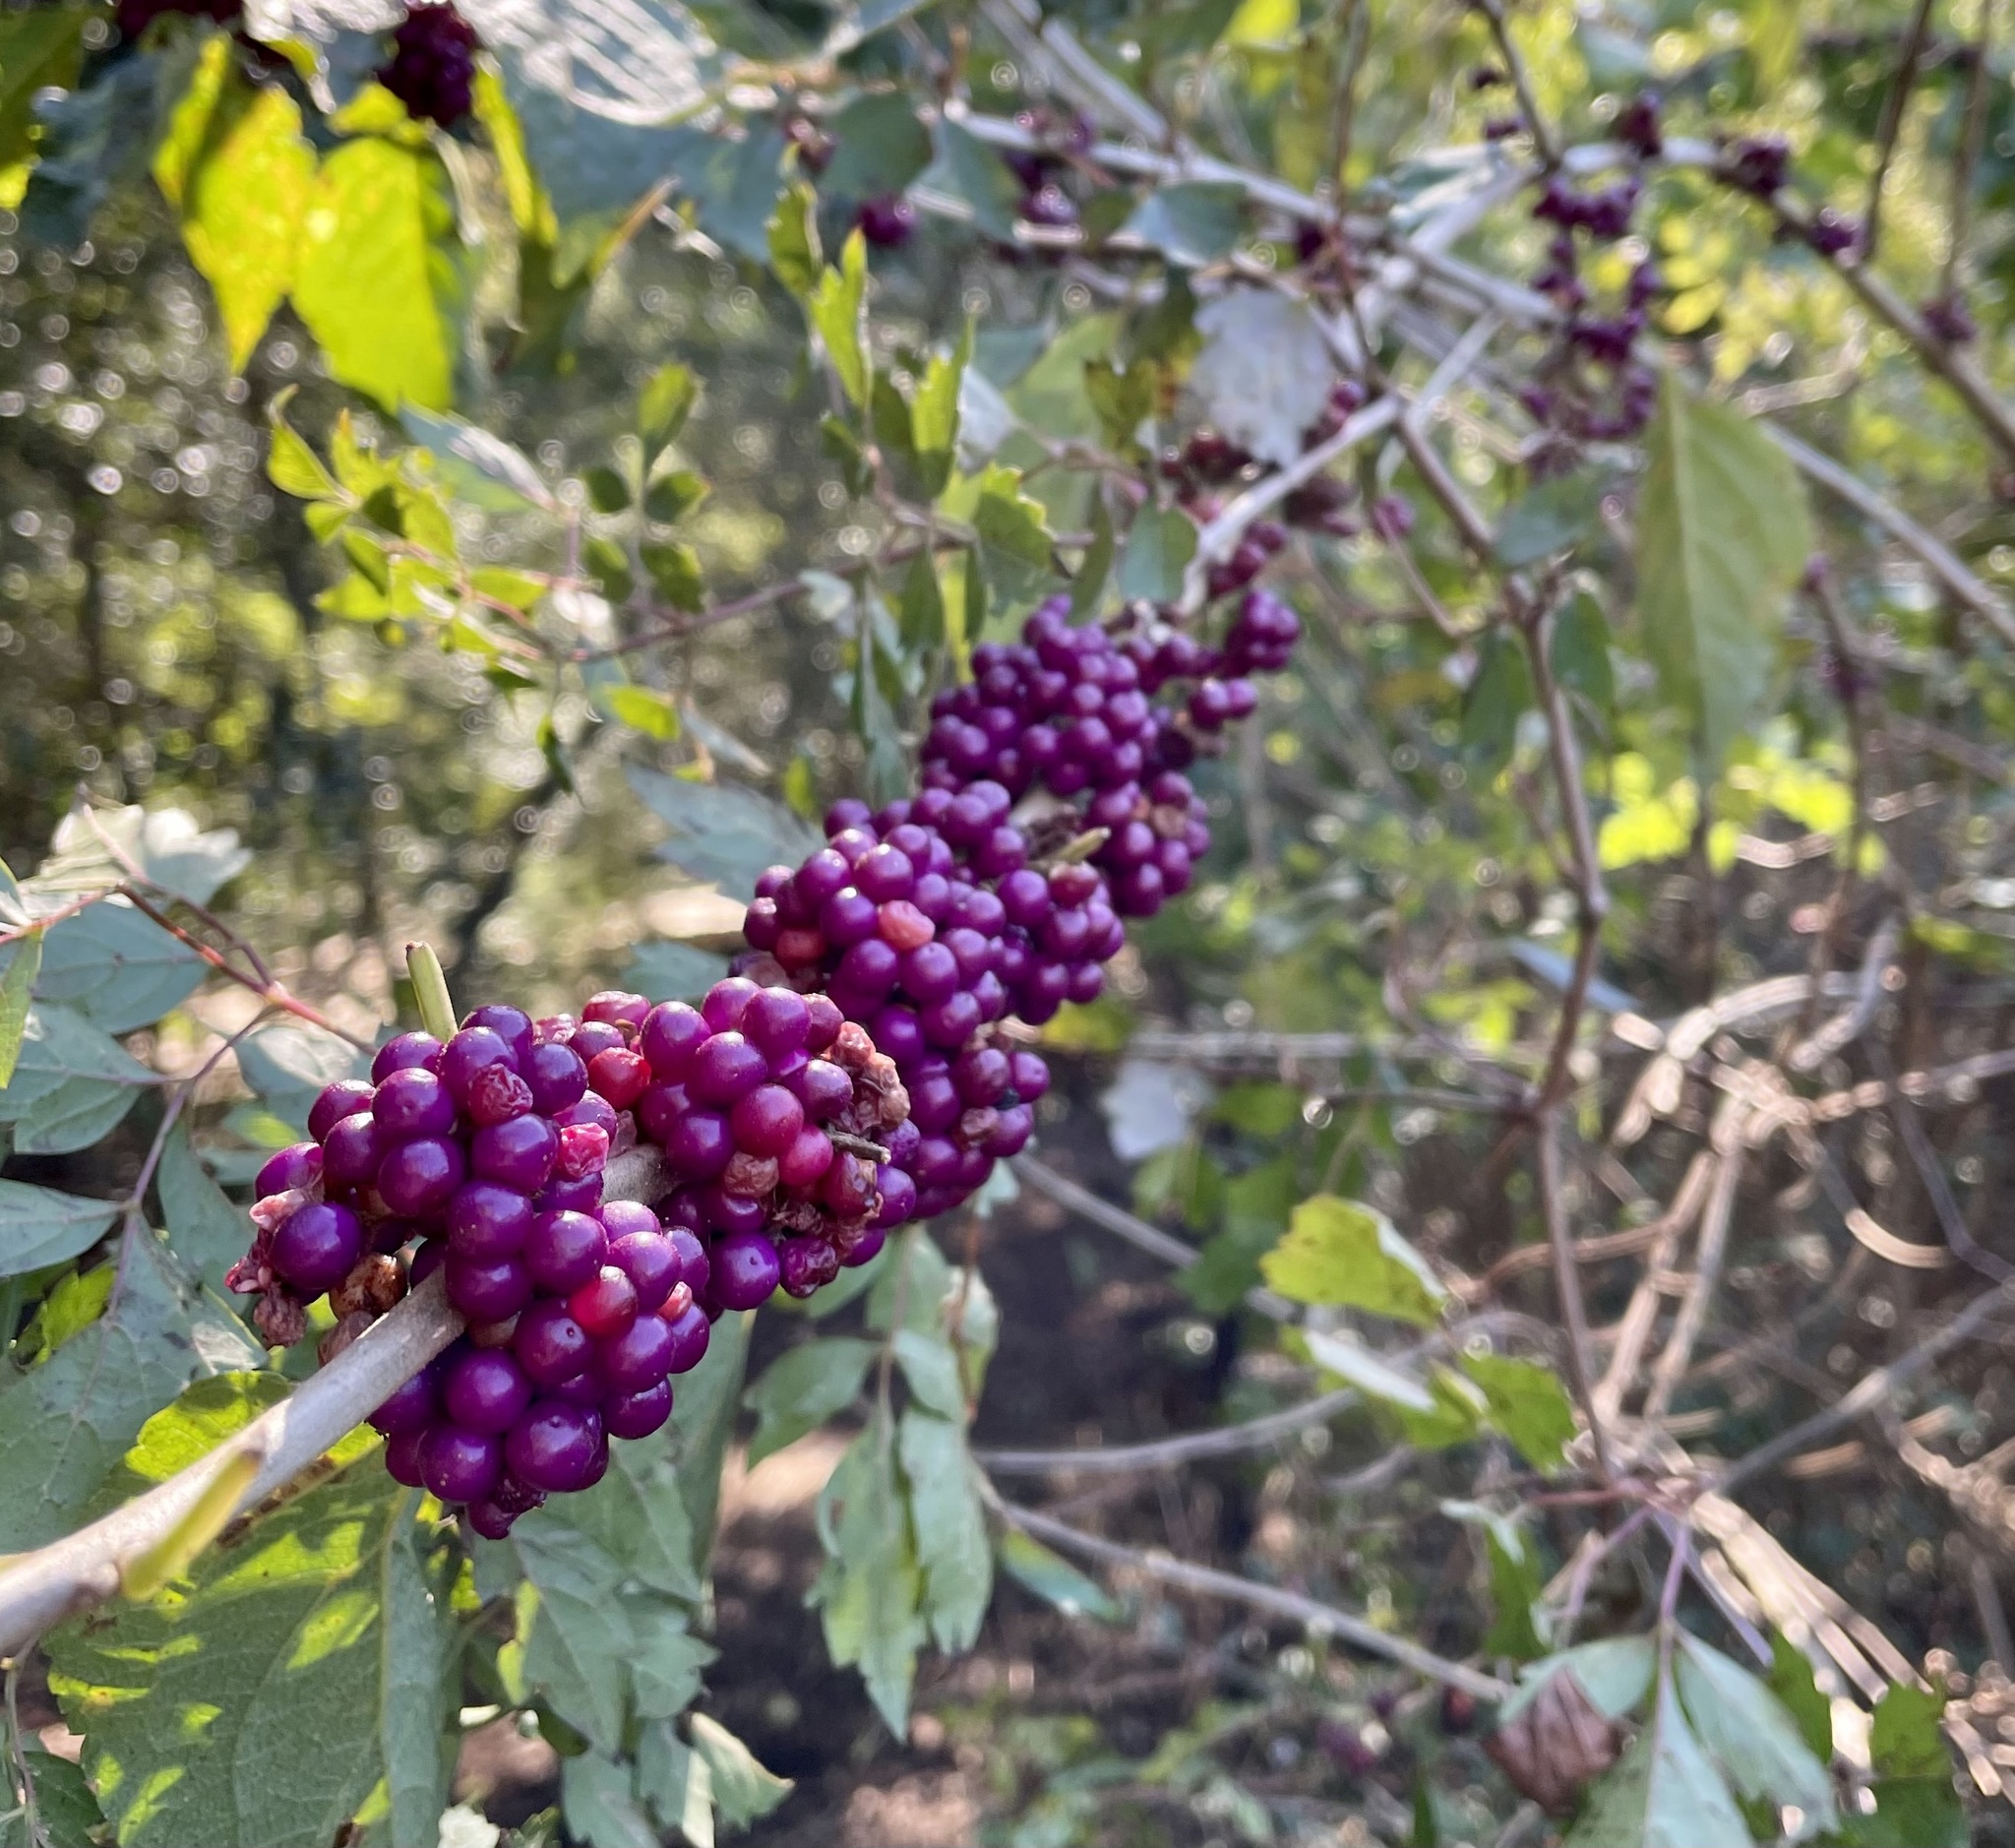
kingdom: Plantae
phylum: Tracheophyta
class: Magnoliopsida
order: Lamiales
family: Lamiaceae
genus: Callicarpa
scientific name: Callicarpa americana
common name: American beautyberry
